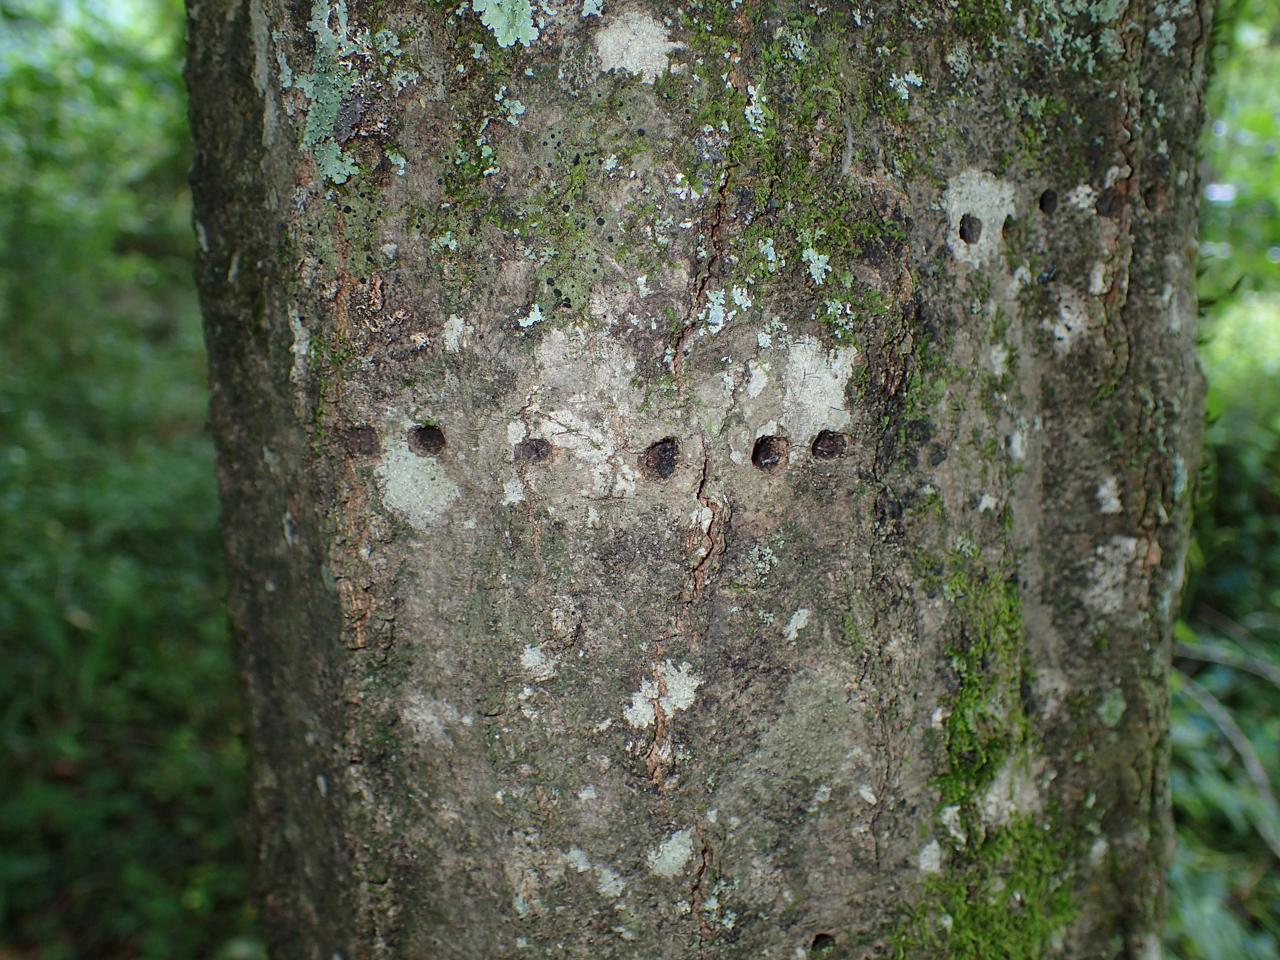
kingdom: Animalia
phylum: Chordata
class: Aves
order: Piciformes
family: Picidae
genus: Sphyrapicus
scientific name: Sphyrapicus varius
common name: Yellow-bellied sapsucker
